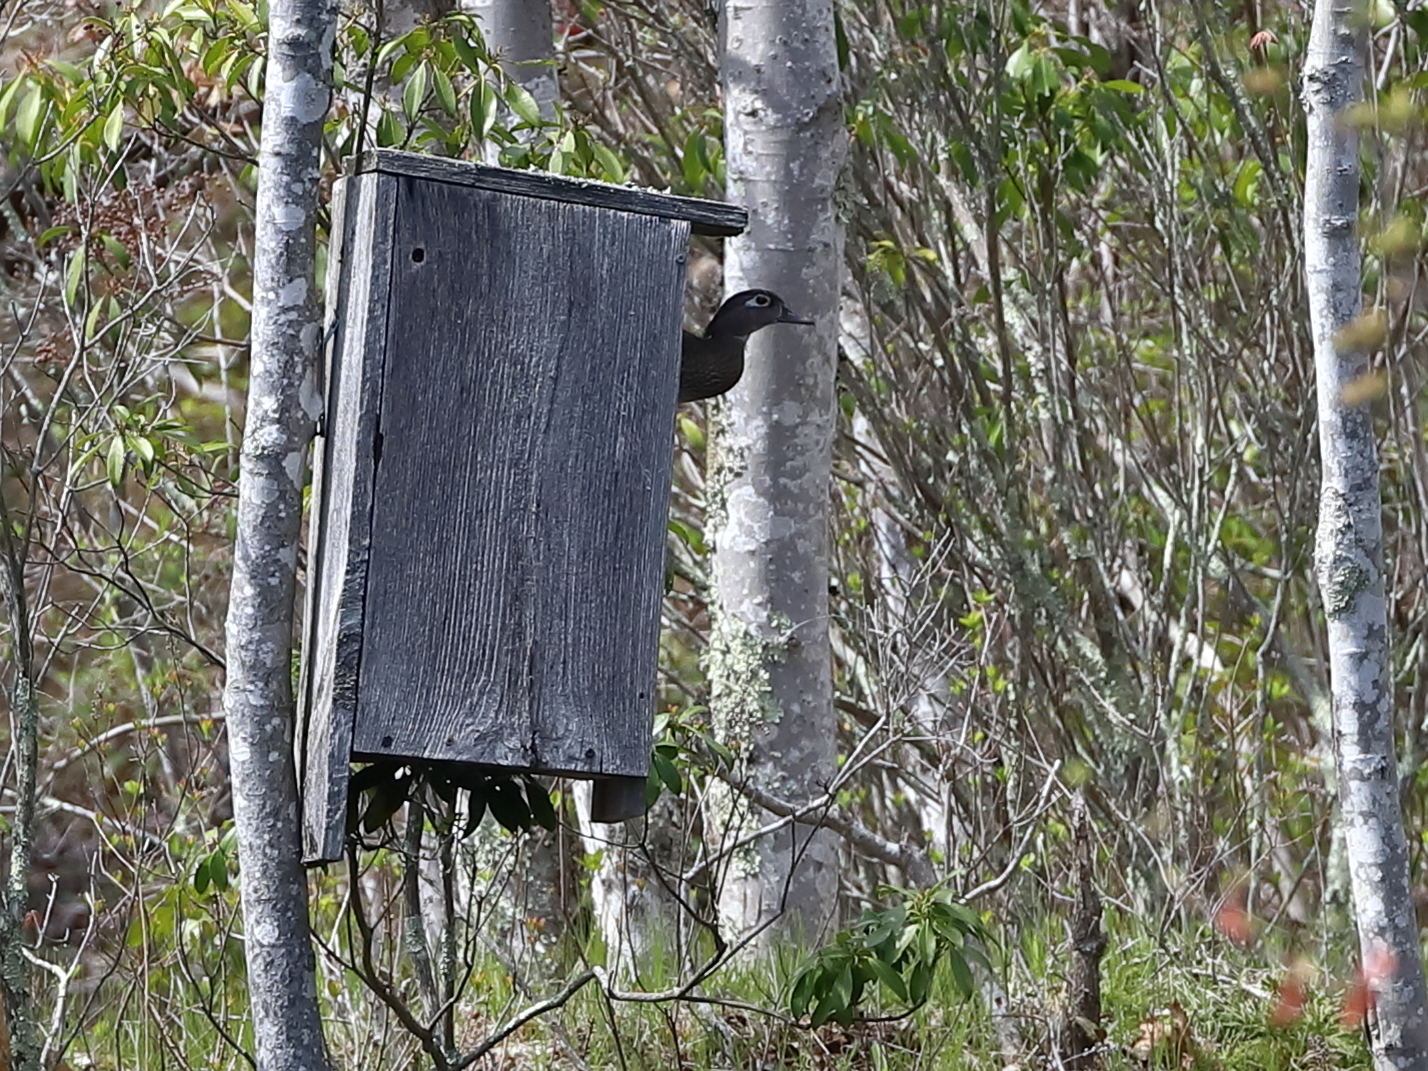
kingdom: Animalia
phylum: Chordata
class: Aves
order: Anseriformes
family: Anatidae
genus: Aix
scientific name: Aix sponsa
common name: Wood duck
